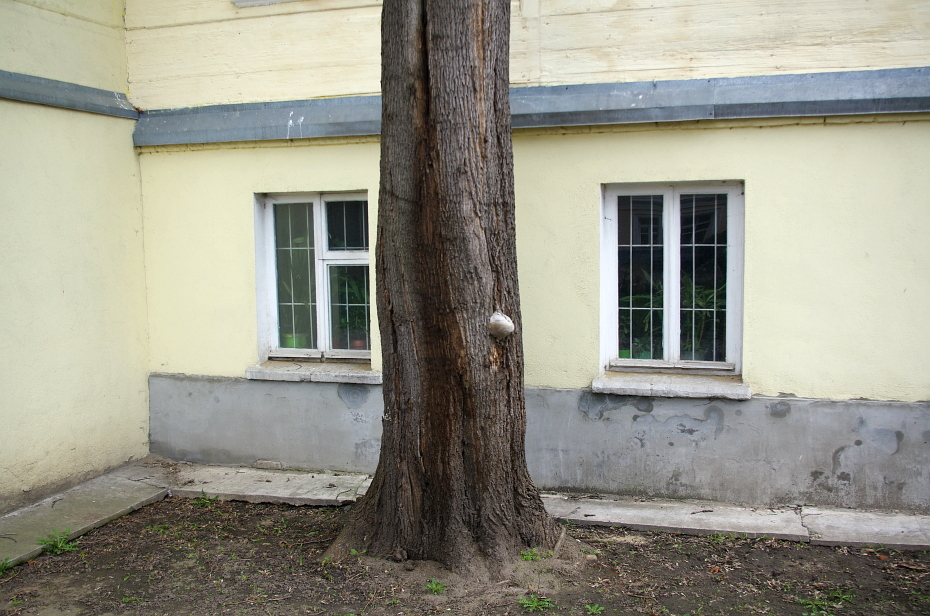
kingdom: Fungi
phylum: Basidiomycota
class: Agaricomycetes
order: Polyporales
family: Polyporaceae
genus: Fomes
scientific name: Fomes fomentarius
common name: Hoof fungus
